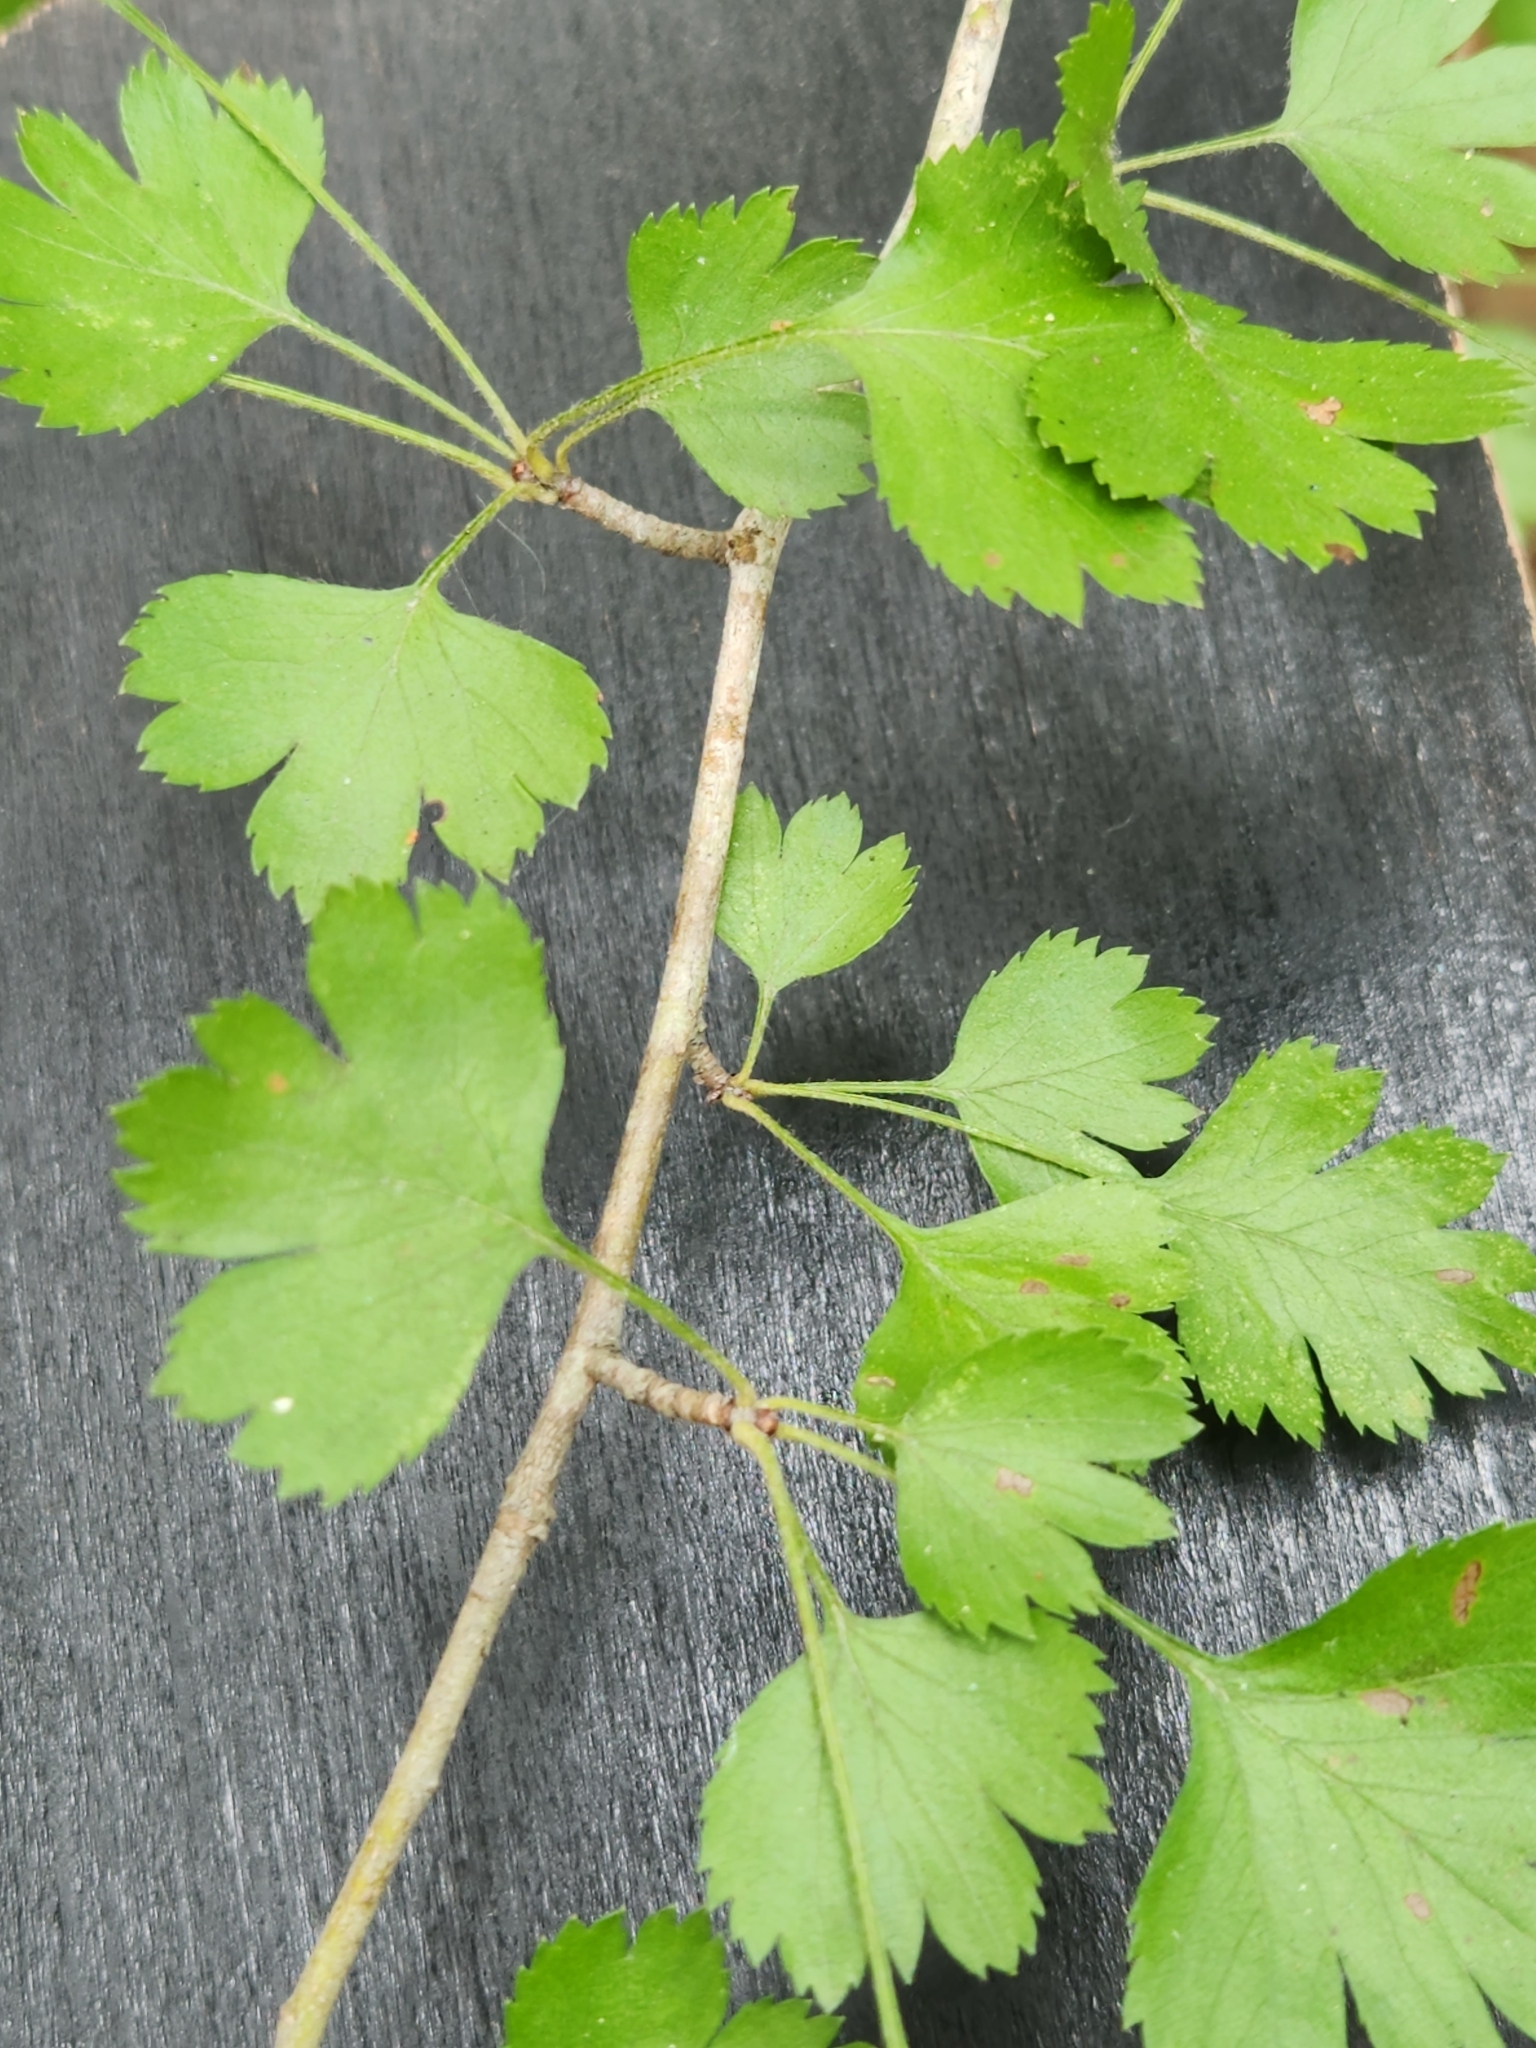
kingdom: Plantae
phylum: Tracheophyta
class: Magnoliopsida
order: Rosales
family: Rosaceae
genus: Crataegus
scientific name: Crataegus marshallii
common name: Parsley-hawthorn
